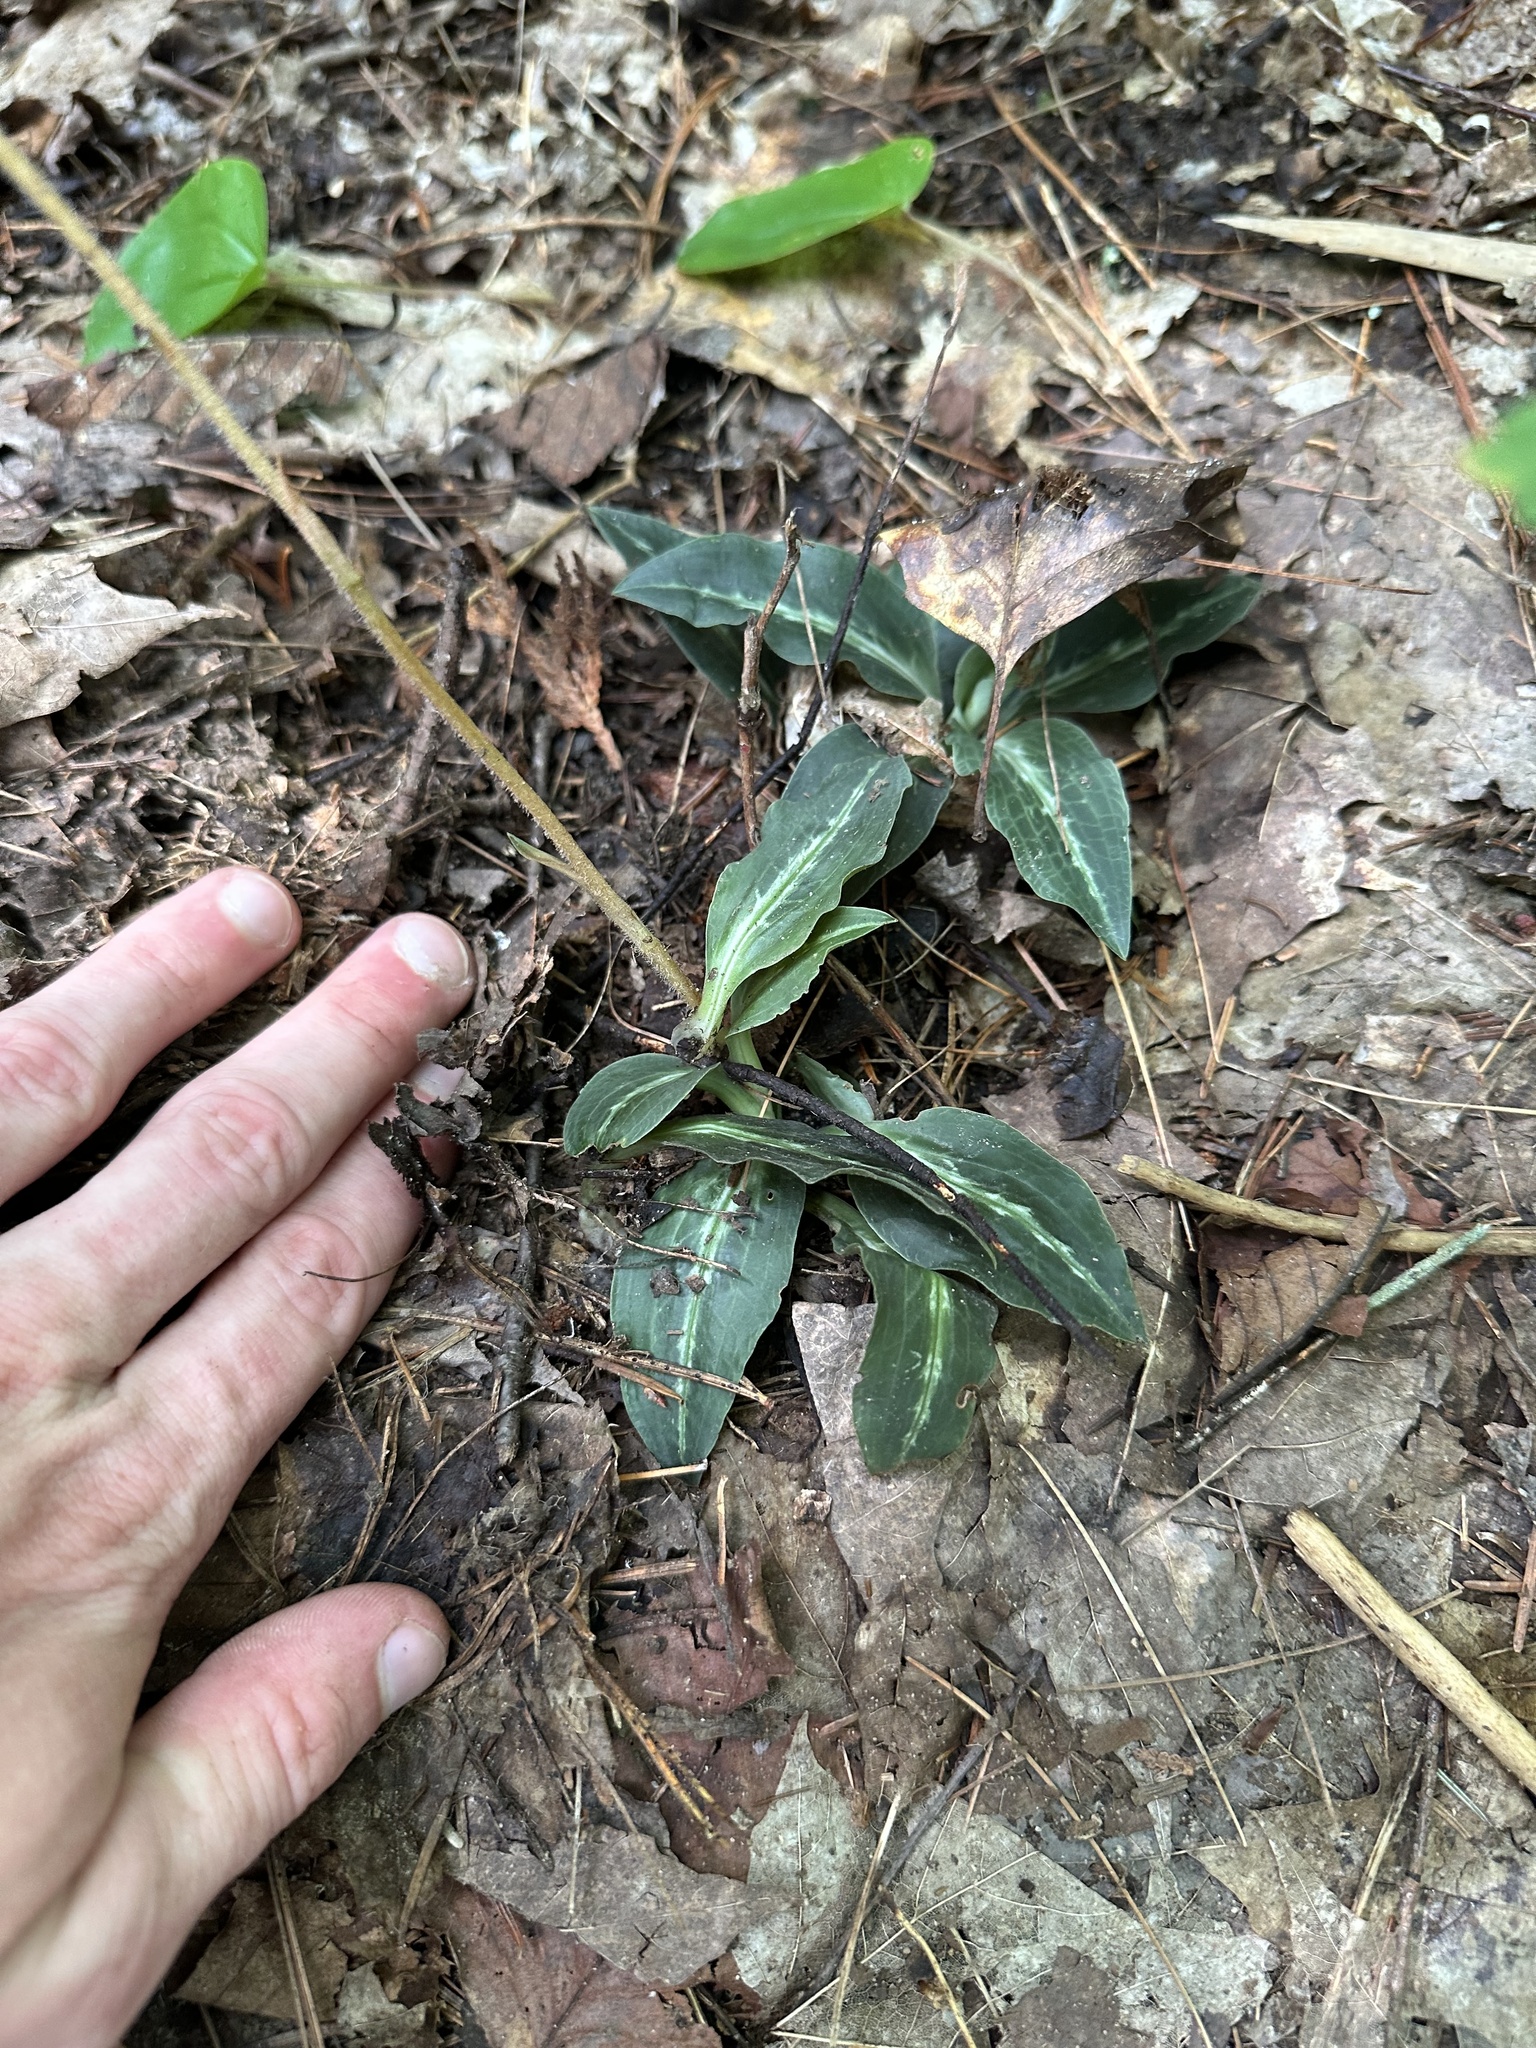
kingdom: Plantae
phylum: Tracheophyta
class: Liliopsida
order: Asparagales
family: Orchidaceae
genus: Goodyera
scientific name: Goodyera oblongifolia
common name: Giant rattlesnake-plantain
